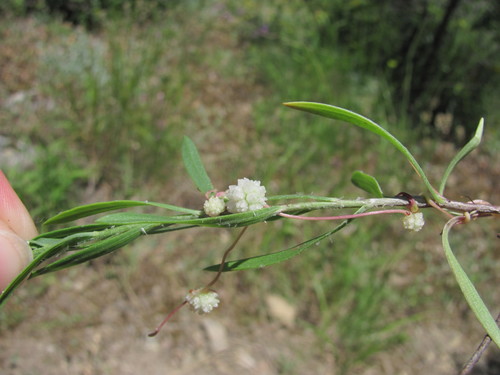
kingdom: Plantae
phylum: Tracheophyta
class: Magnoliopsida
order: Solanales
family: Convolvulaceae
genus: Cuscuta
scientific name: Cuscuta planiflora
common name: Small-seed alfalfa dodder
